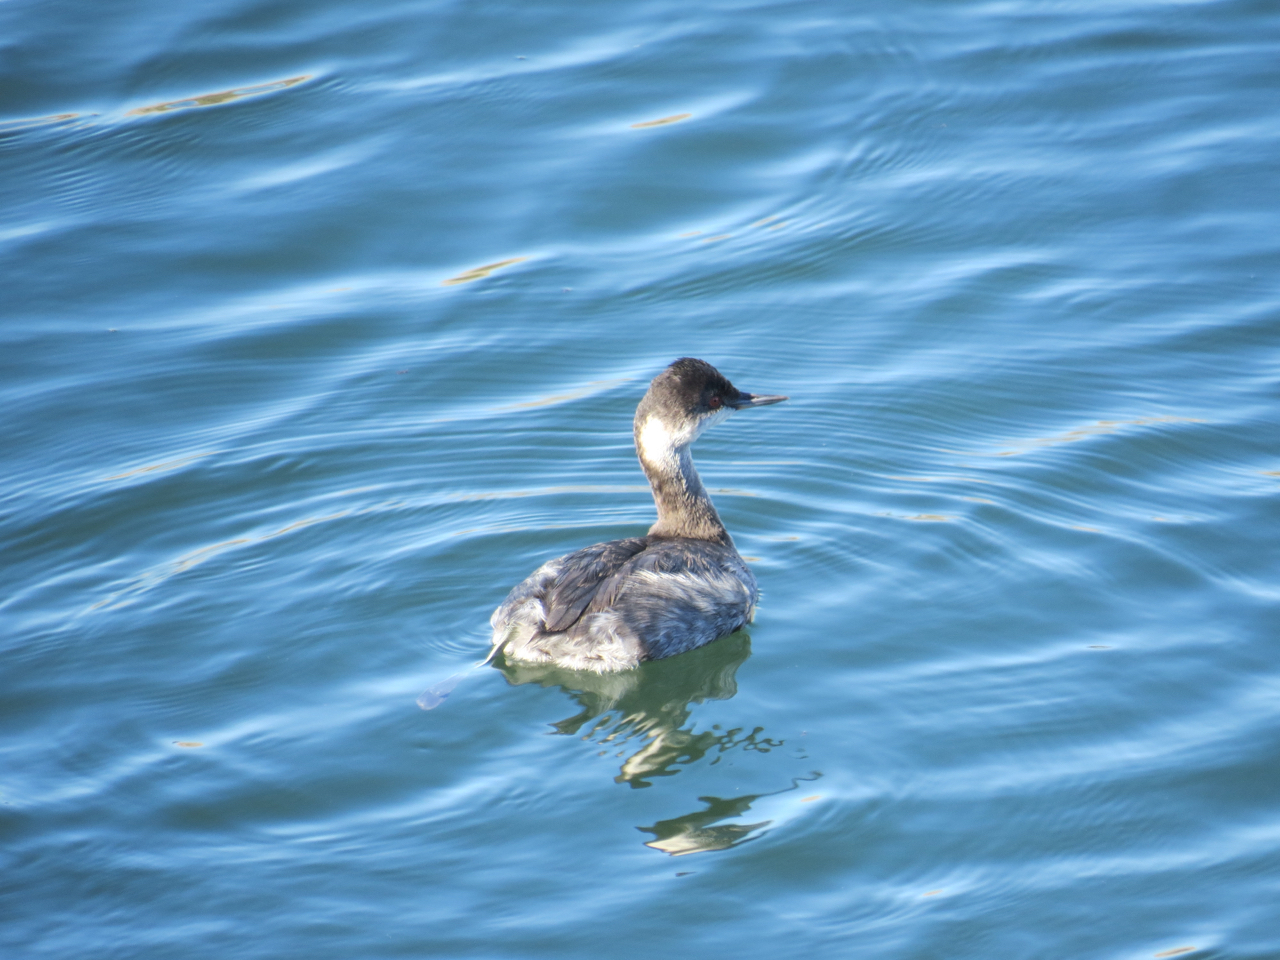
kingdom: Animalia
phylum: Chordata
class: Aves
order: Podicipediformes
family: Podicipedidae
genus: Podiceps
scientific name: Podiceps nigricollis
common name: Black-necked grebe
